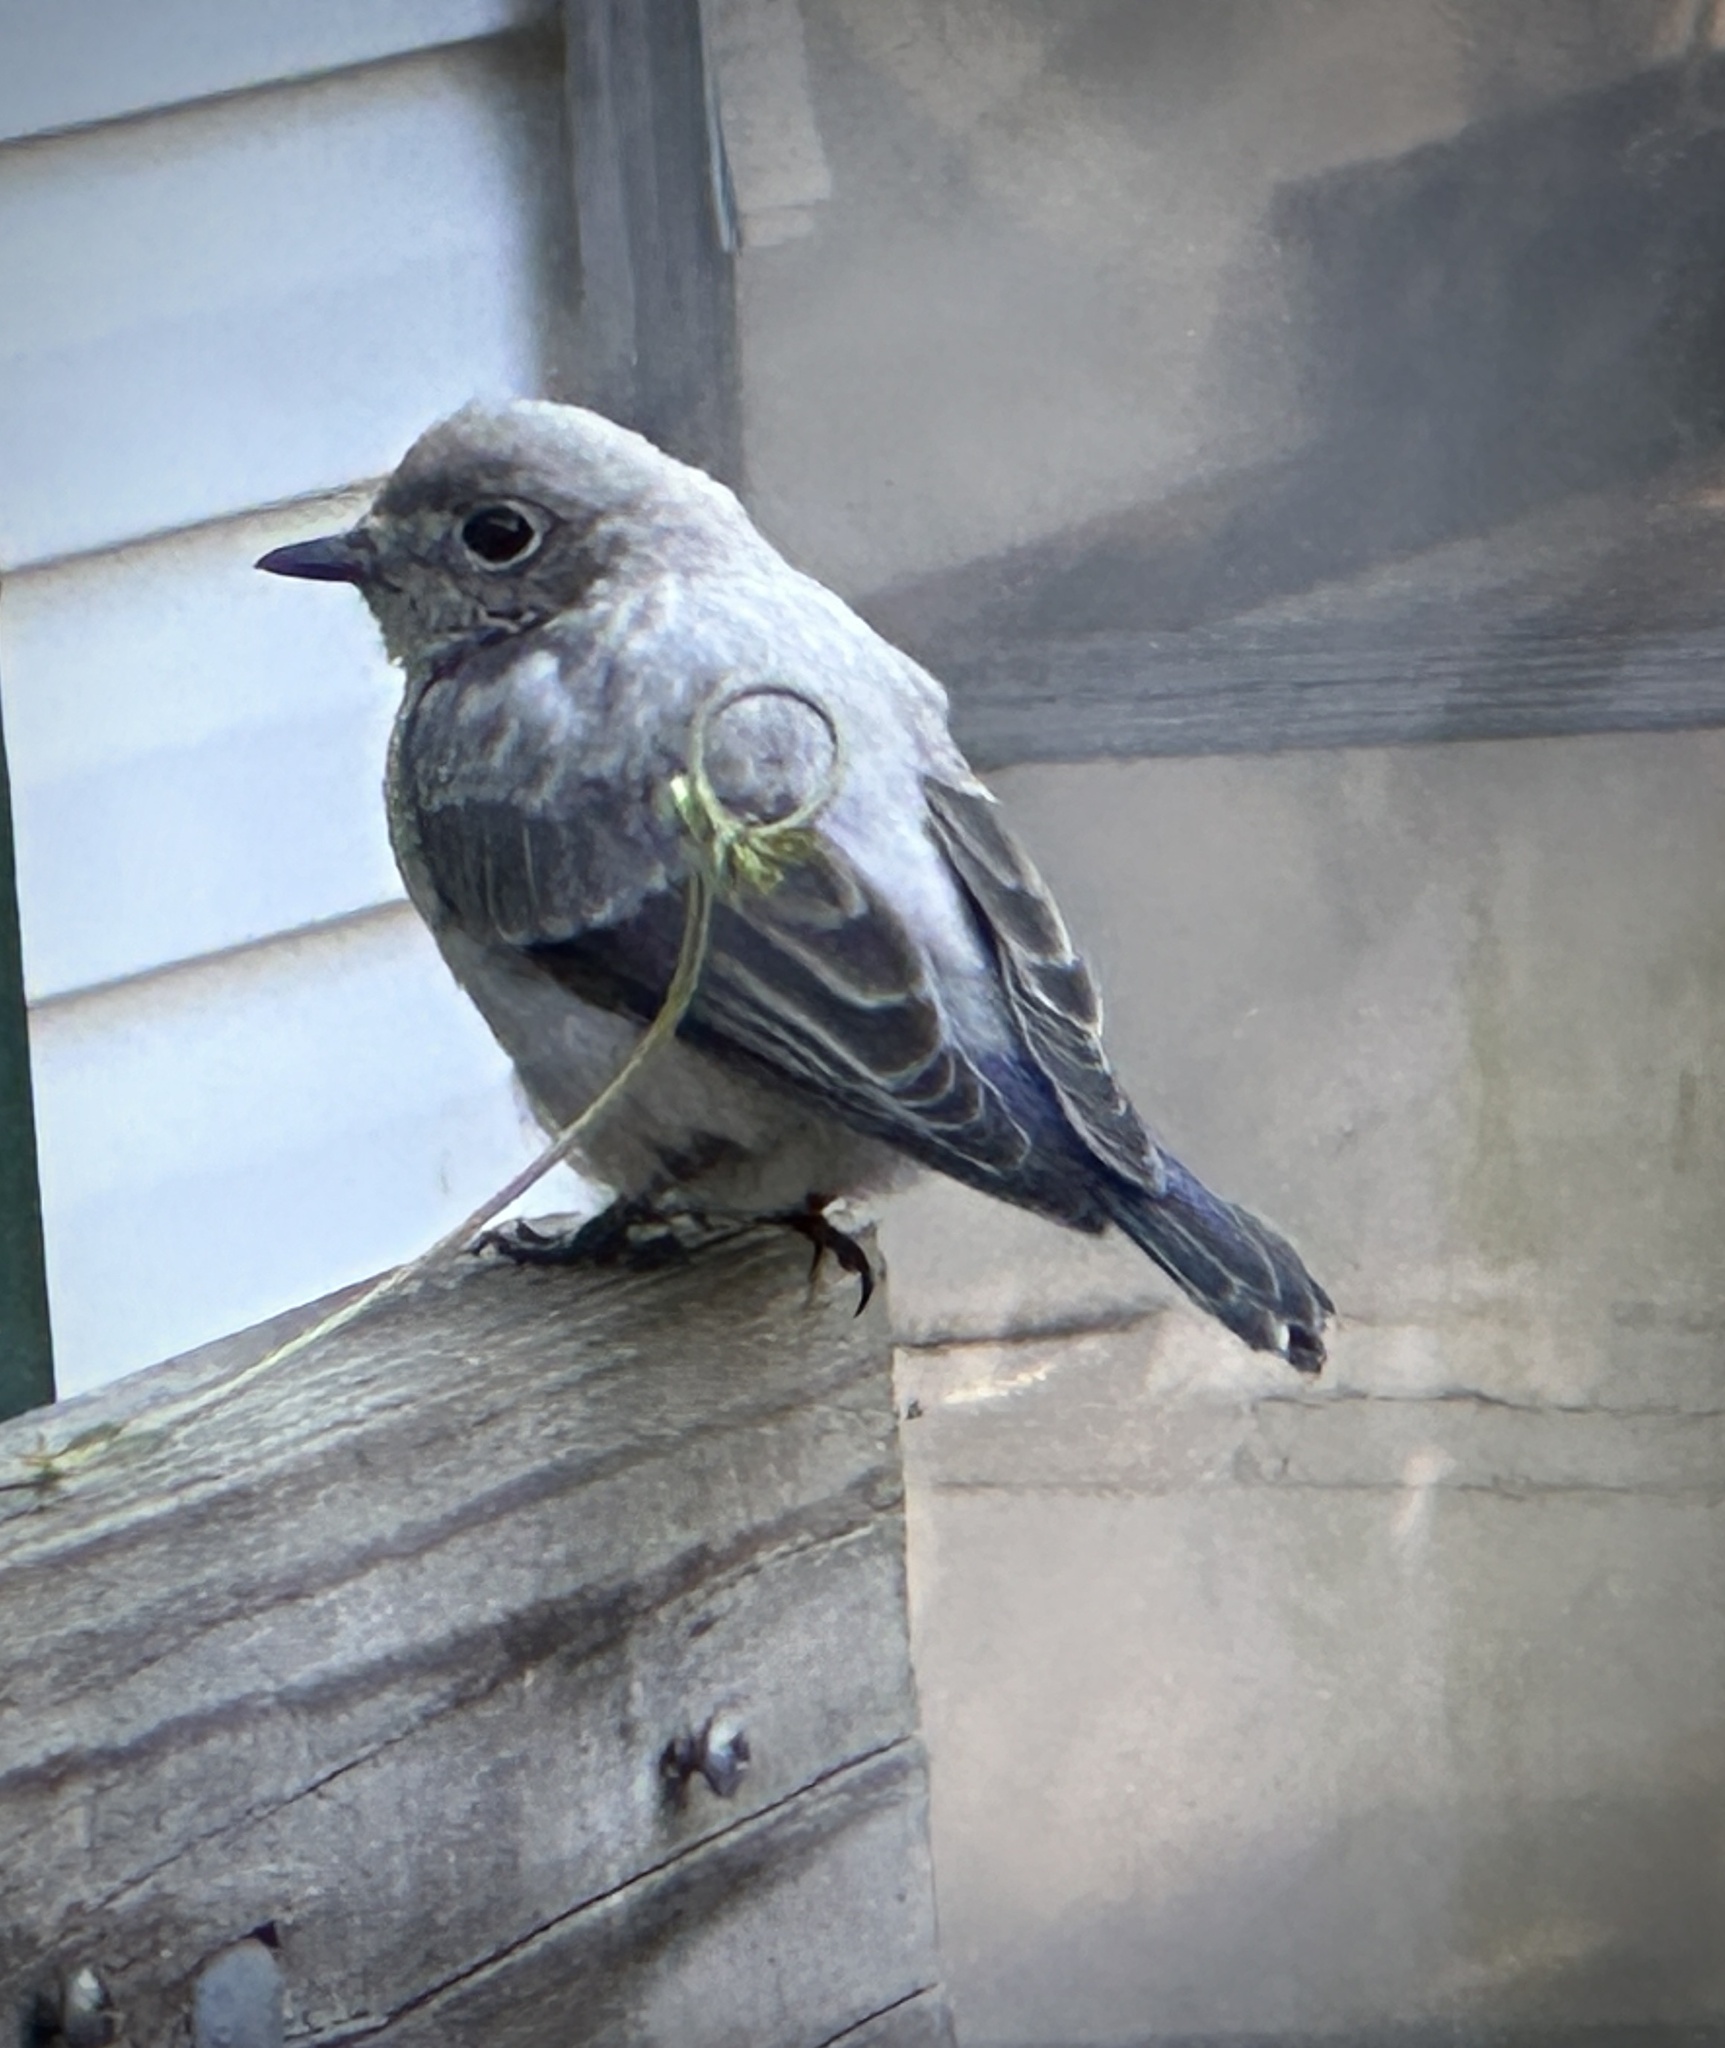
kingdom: Animalia
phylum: Chordata
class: Aves
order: Passeriformes
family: Turdidae
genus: Sialia
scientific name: Sialia sialis
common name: Eastern bluebird
